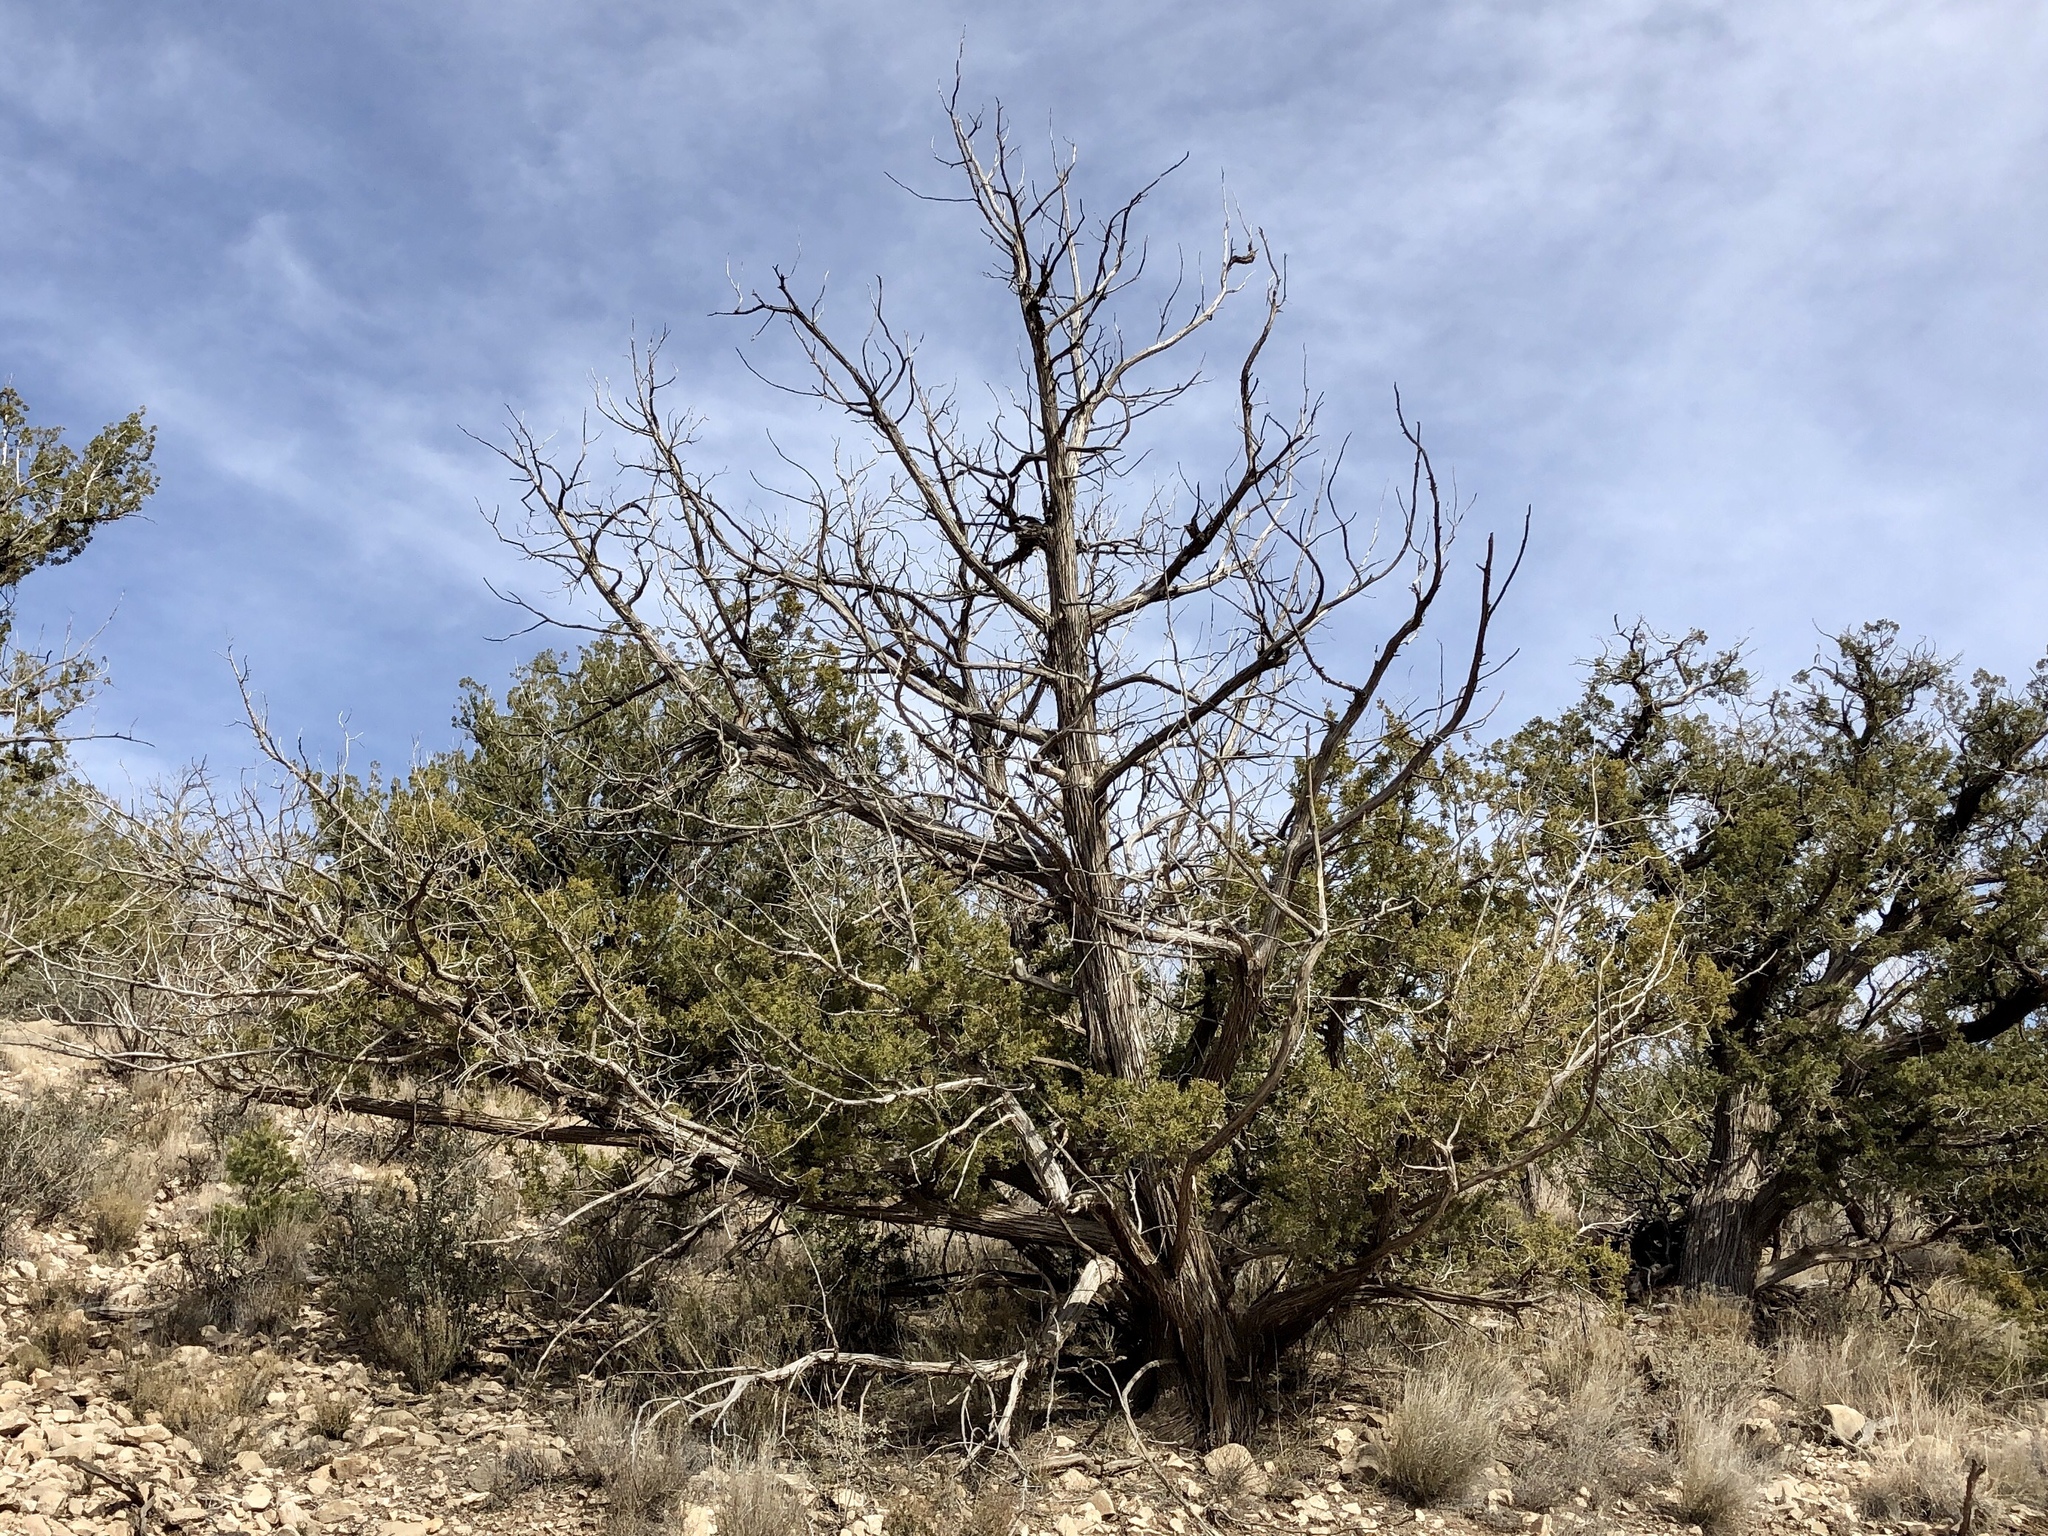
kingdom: Plantae
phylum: Tracheophyta
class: Pinopsida
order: Pinales
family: Cupressaceae
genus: Juniperus
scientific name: Juniperus monosperma
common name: One-seed juniper
